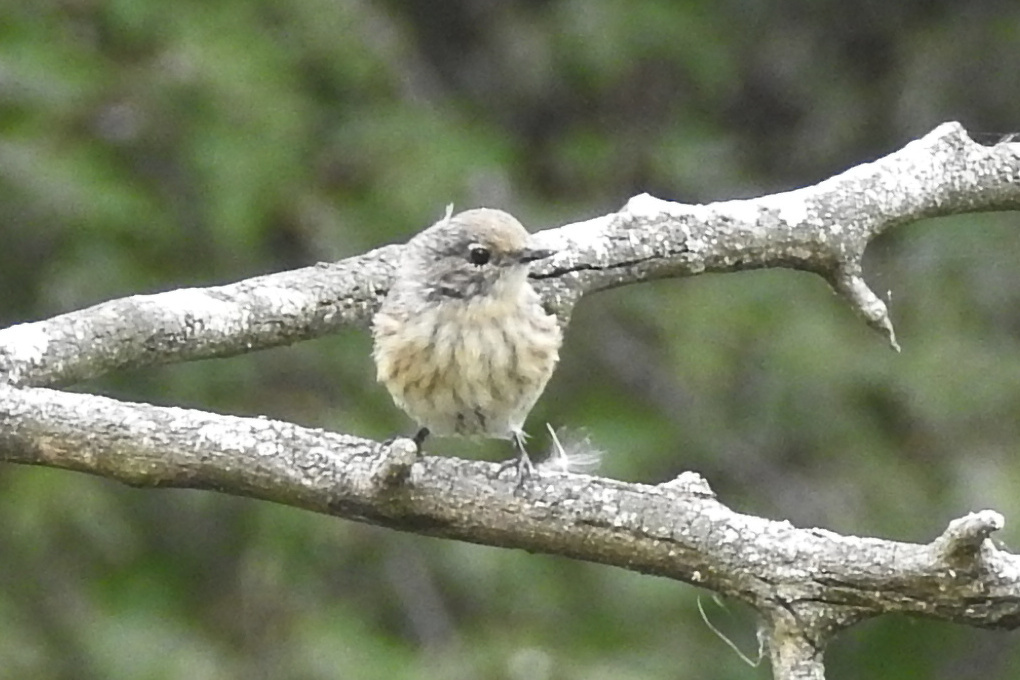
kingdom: Animalia
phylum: Chordata
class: Aves
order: Passeriformes
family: Parulidae
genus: Setophaga
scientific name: Setophaga coronata
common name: Myrtle warbler
